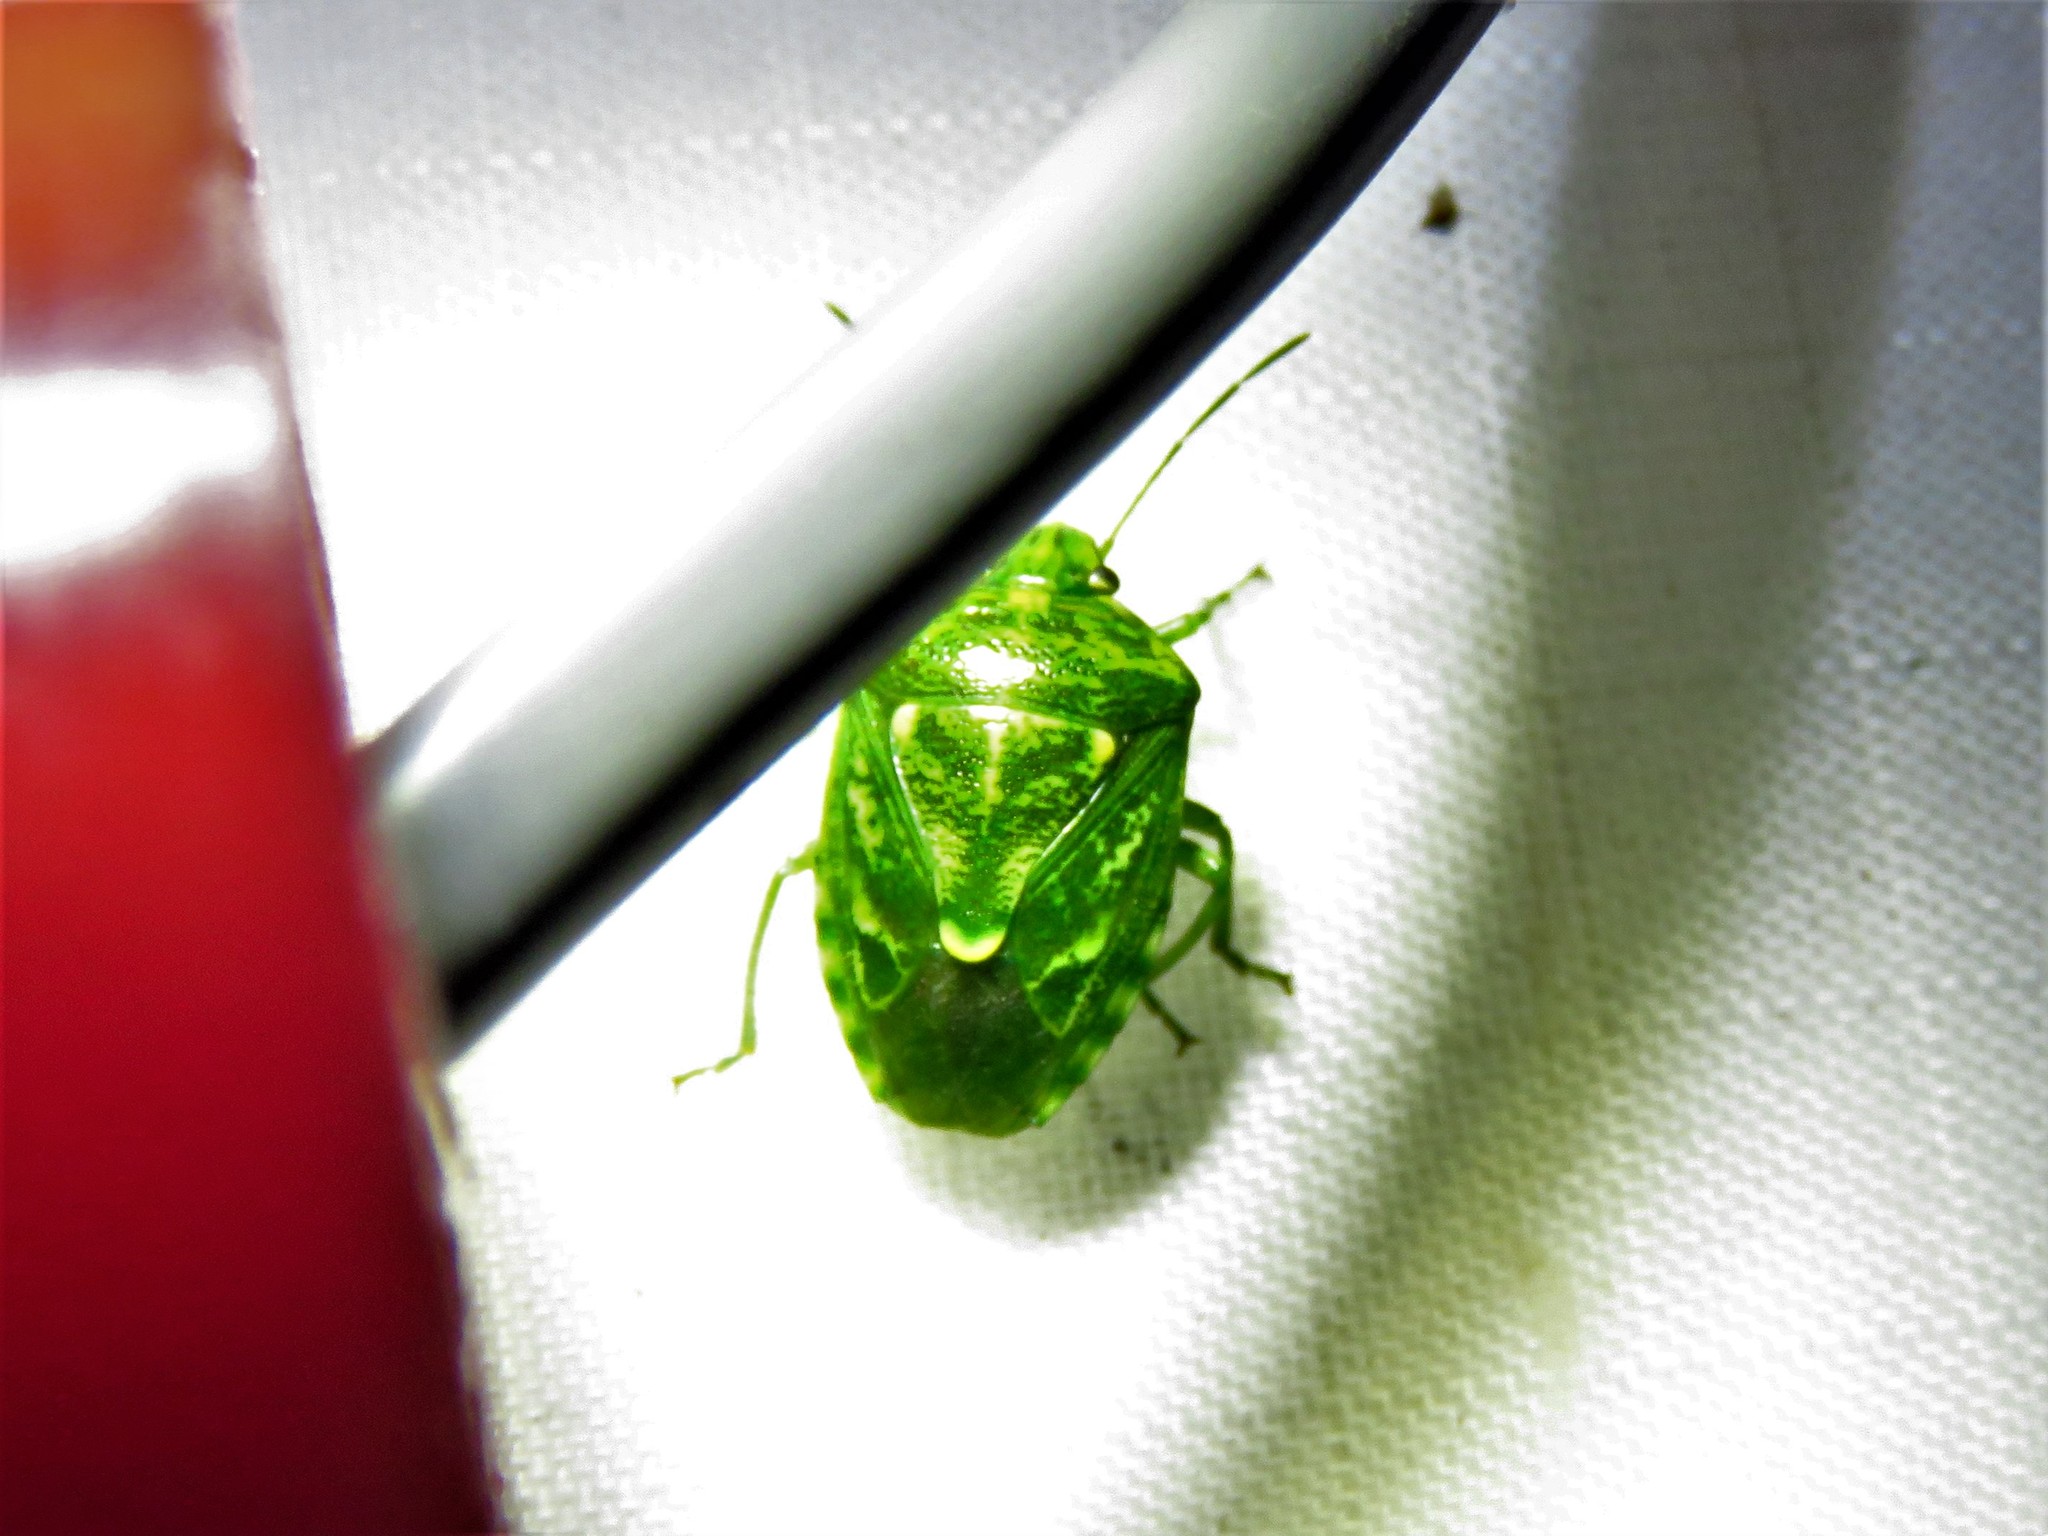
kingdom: Animalia
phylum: Arthropoda
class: Insecta
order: Hemiptera
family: Pentatomidae
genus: Banasa
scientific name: Banasa euchlora
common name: Cedar berry bug
